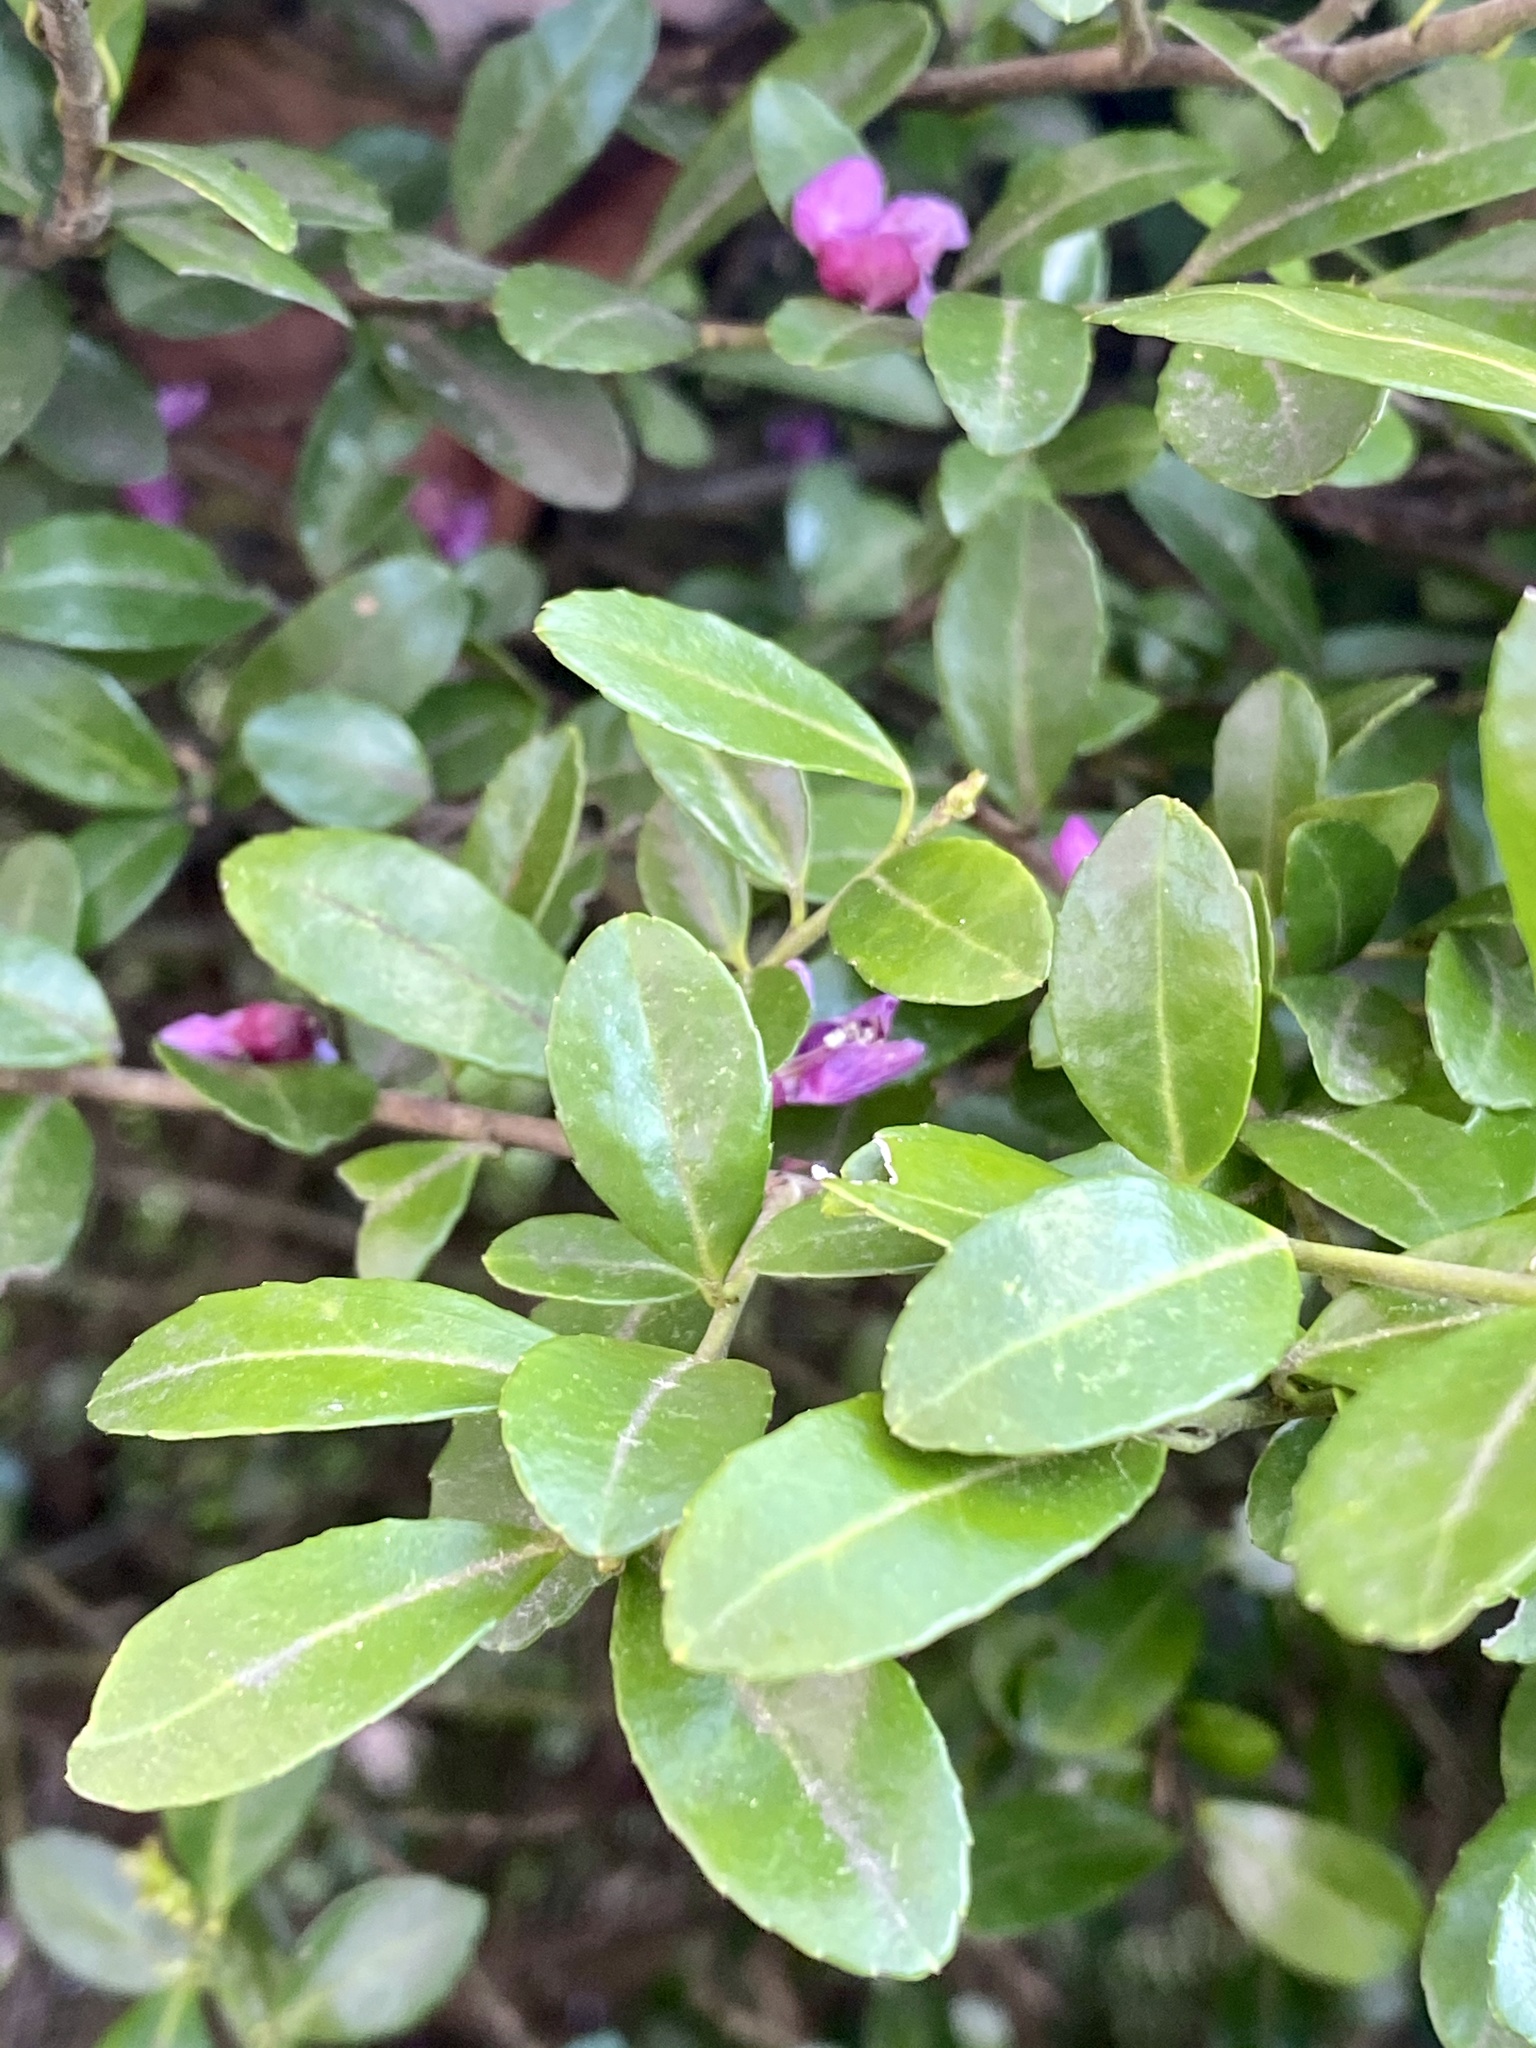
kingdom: Plantae
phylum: Tracheophyta
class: Magnoliopsida
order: Aquifoliales
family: Aquifoliaceae
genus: Ilex
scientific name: Ilex crenata
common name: Japanese holly
